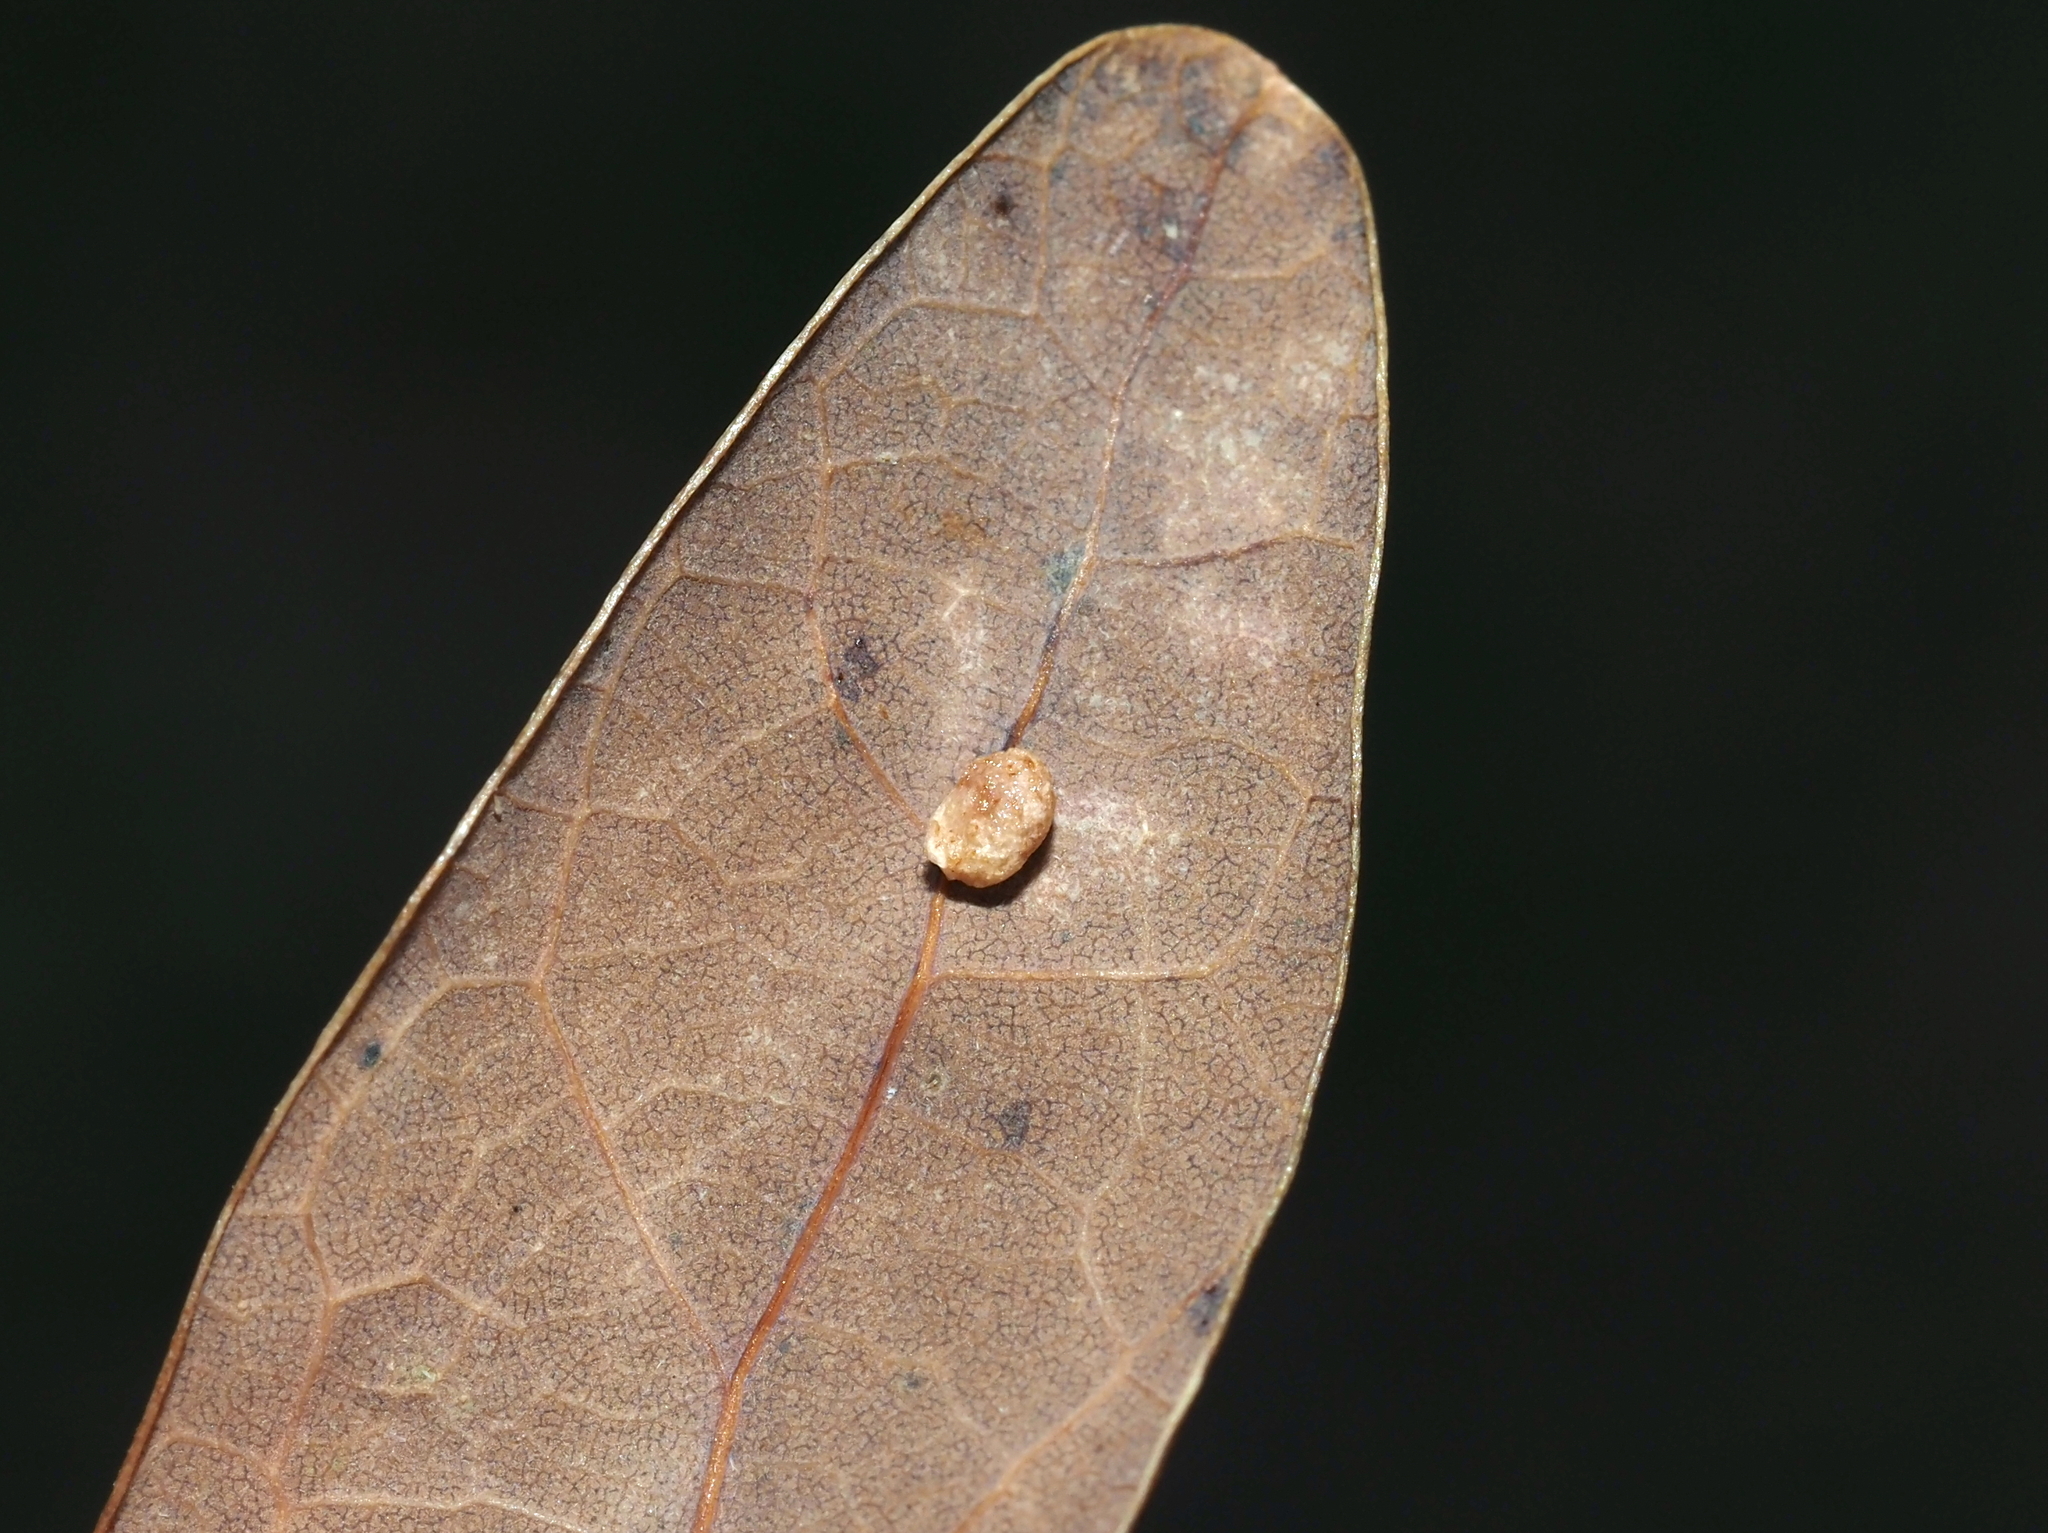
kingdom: Animalia
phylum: Arthropoda
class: Insecta
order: Hymenoptera
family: Cynipidae
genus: Phylloteras
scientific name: Phylloteras
